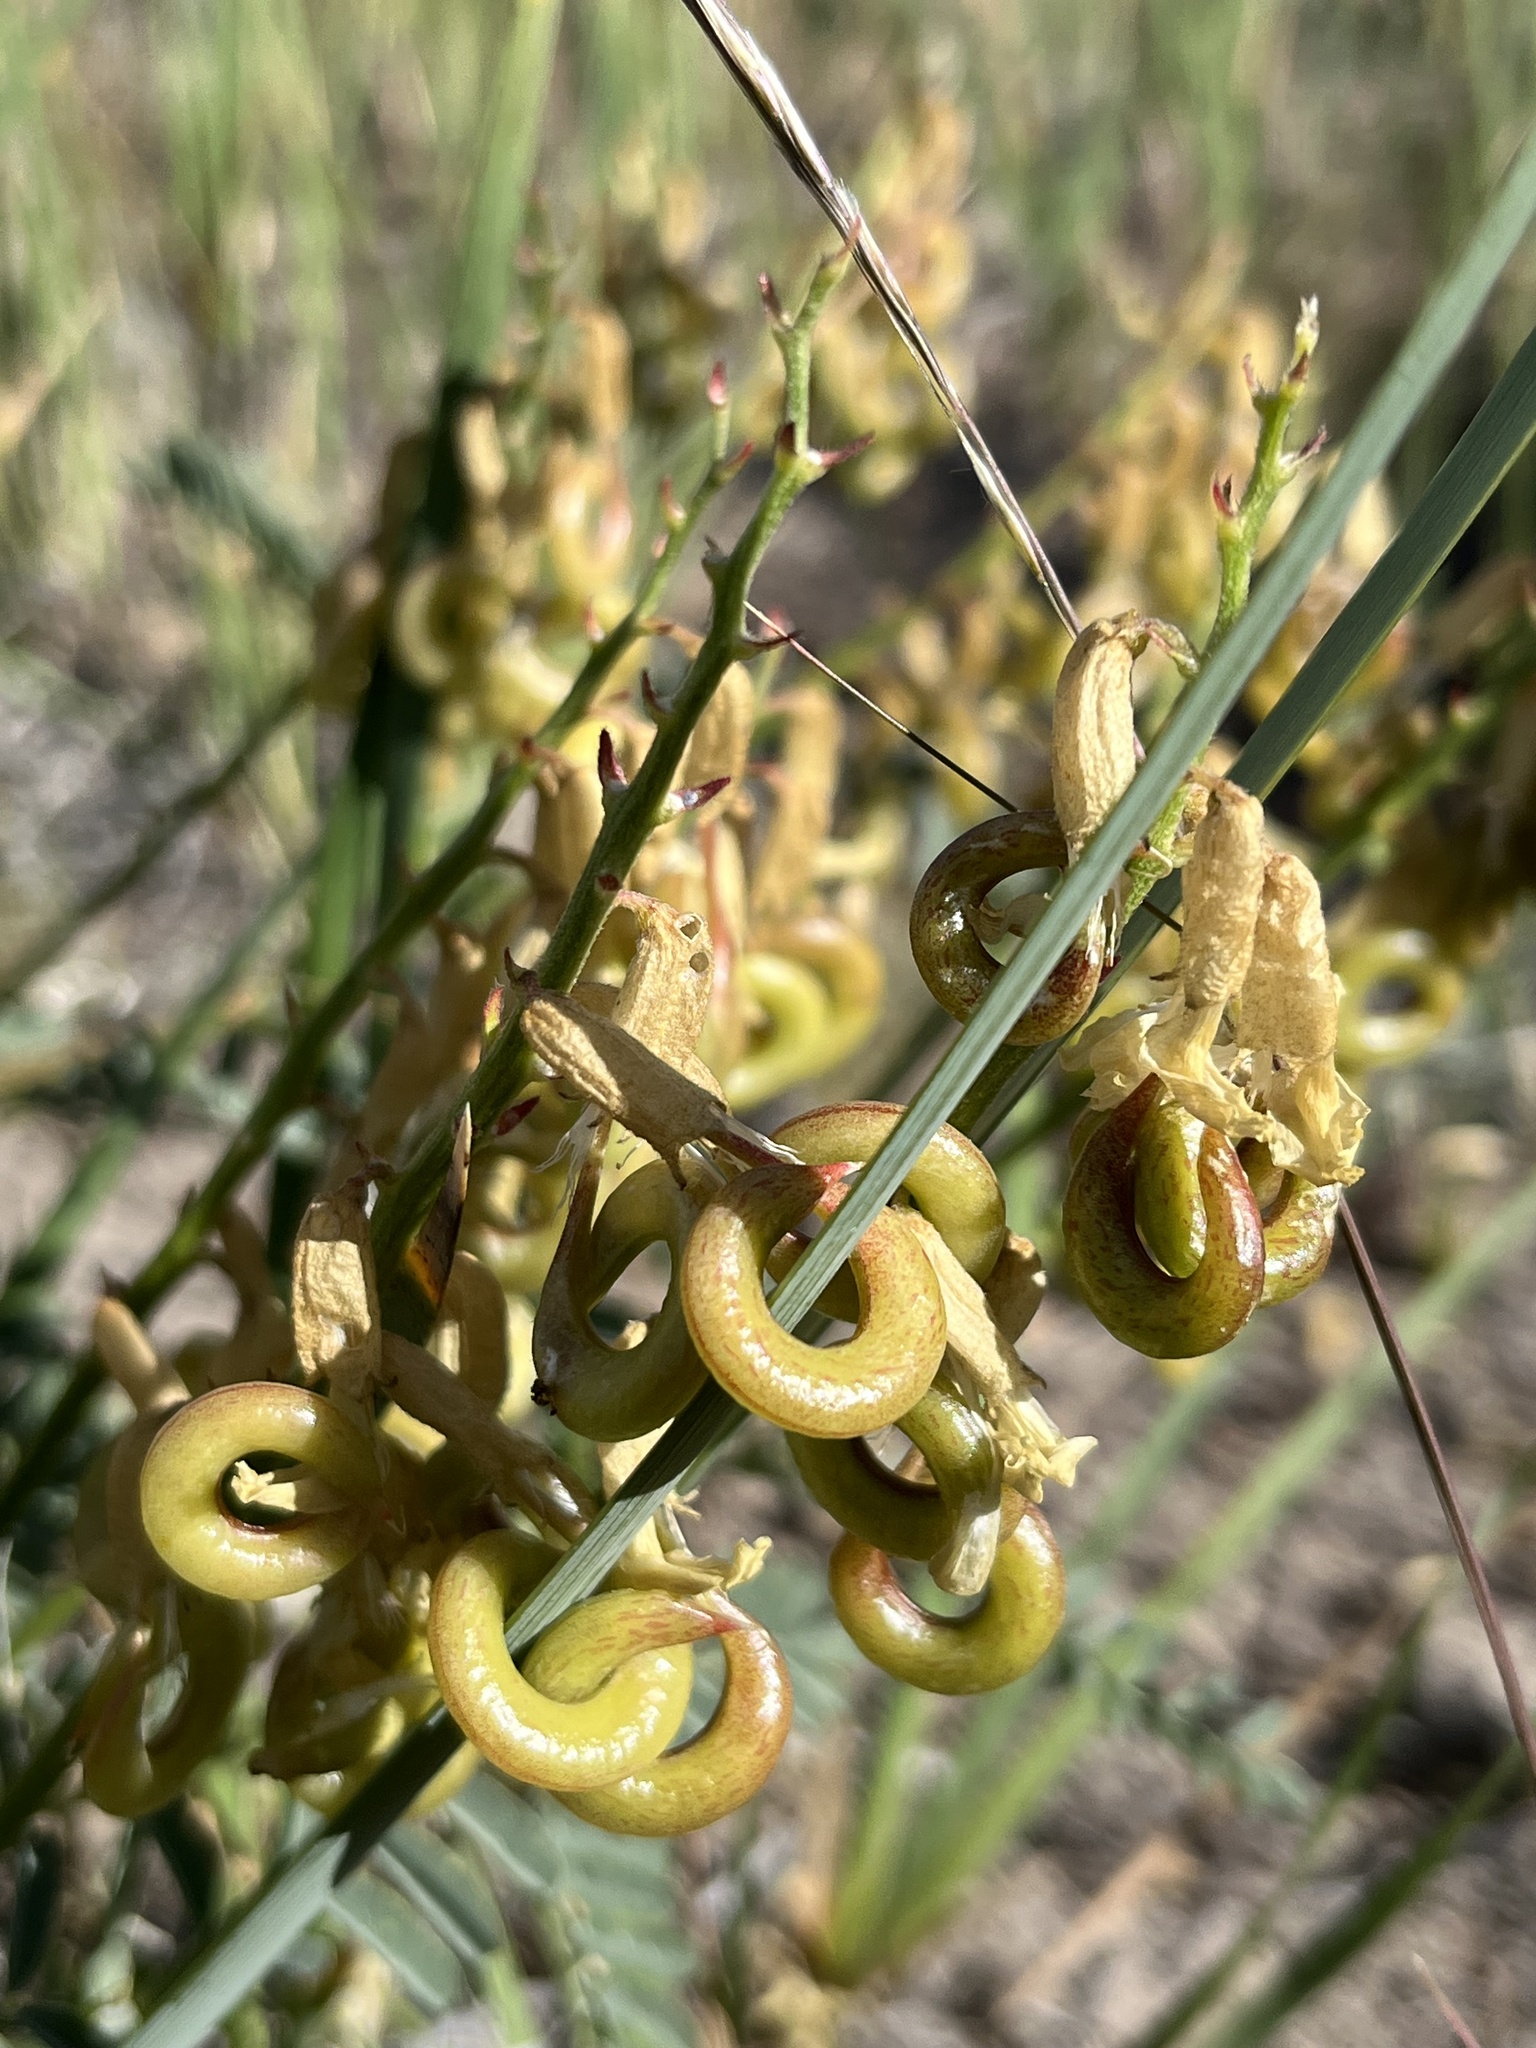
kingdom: Plantae
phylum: Tracheophyta
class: Magnoliopsida
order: Fabales
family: Fabaceae
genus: Astragalus
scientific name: Astragalus curvicarpus
